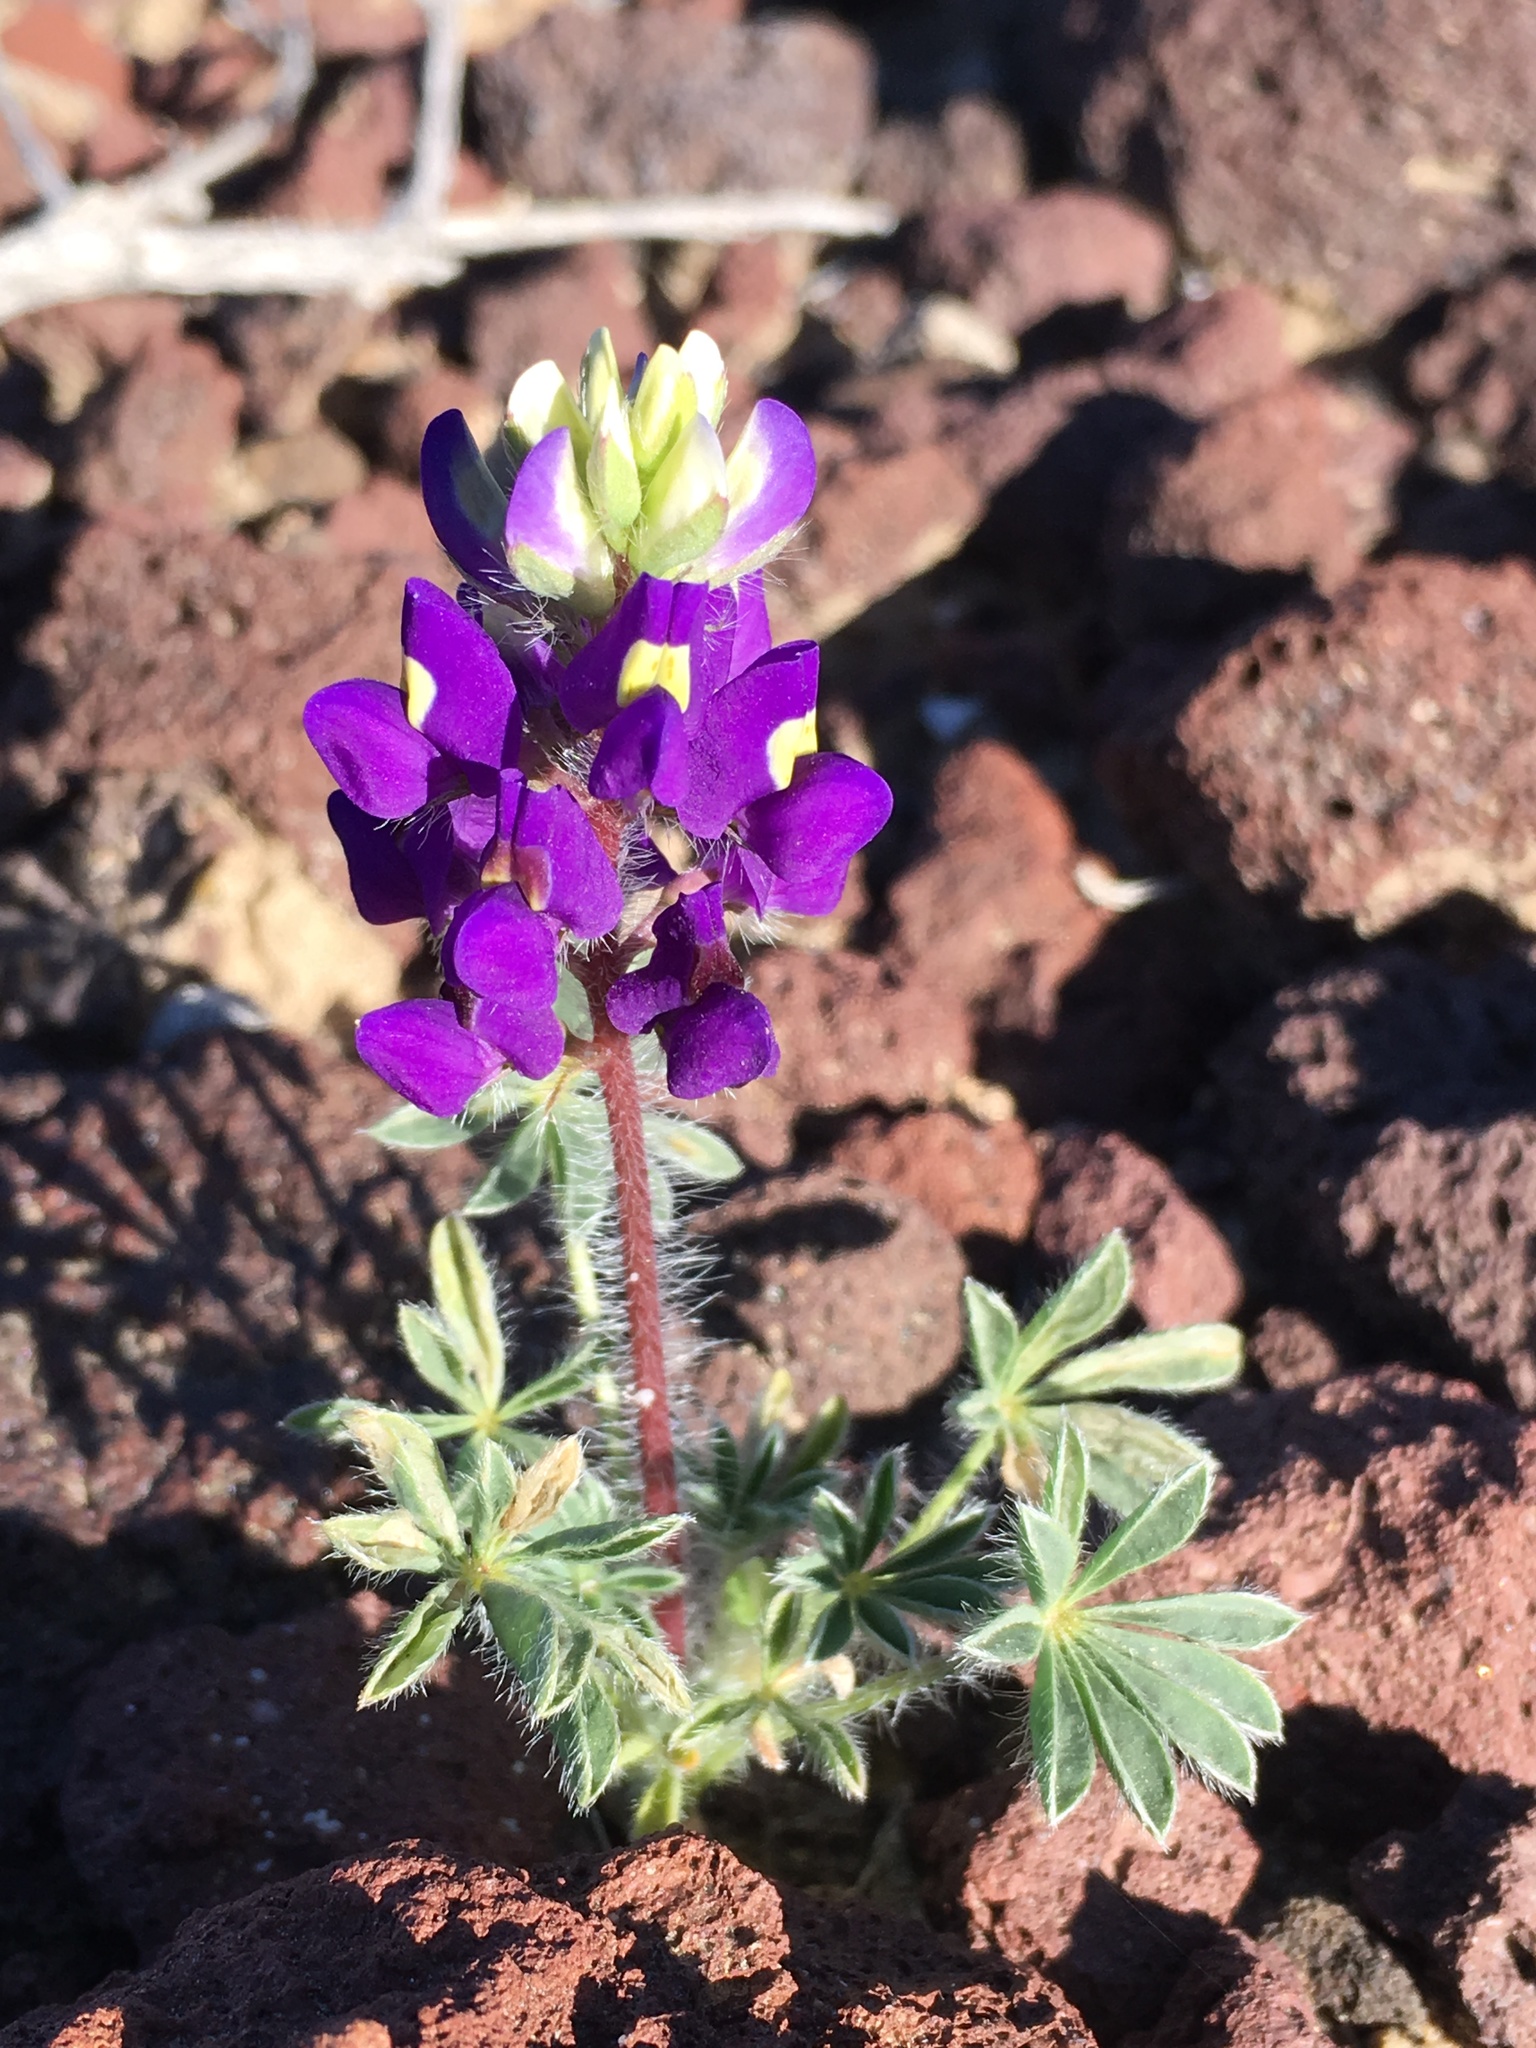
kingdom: Plantae
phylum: Tracheophyta
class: Magnoliopsida
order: Fabales
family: Fabaceae
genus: Lupinus
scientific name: Lupinus flavoculatus
